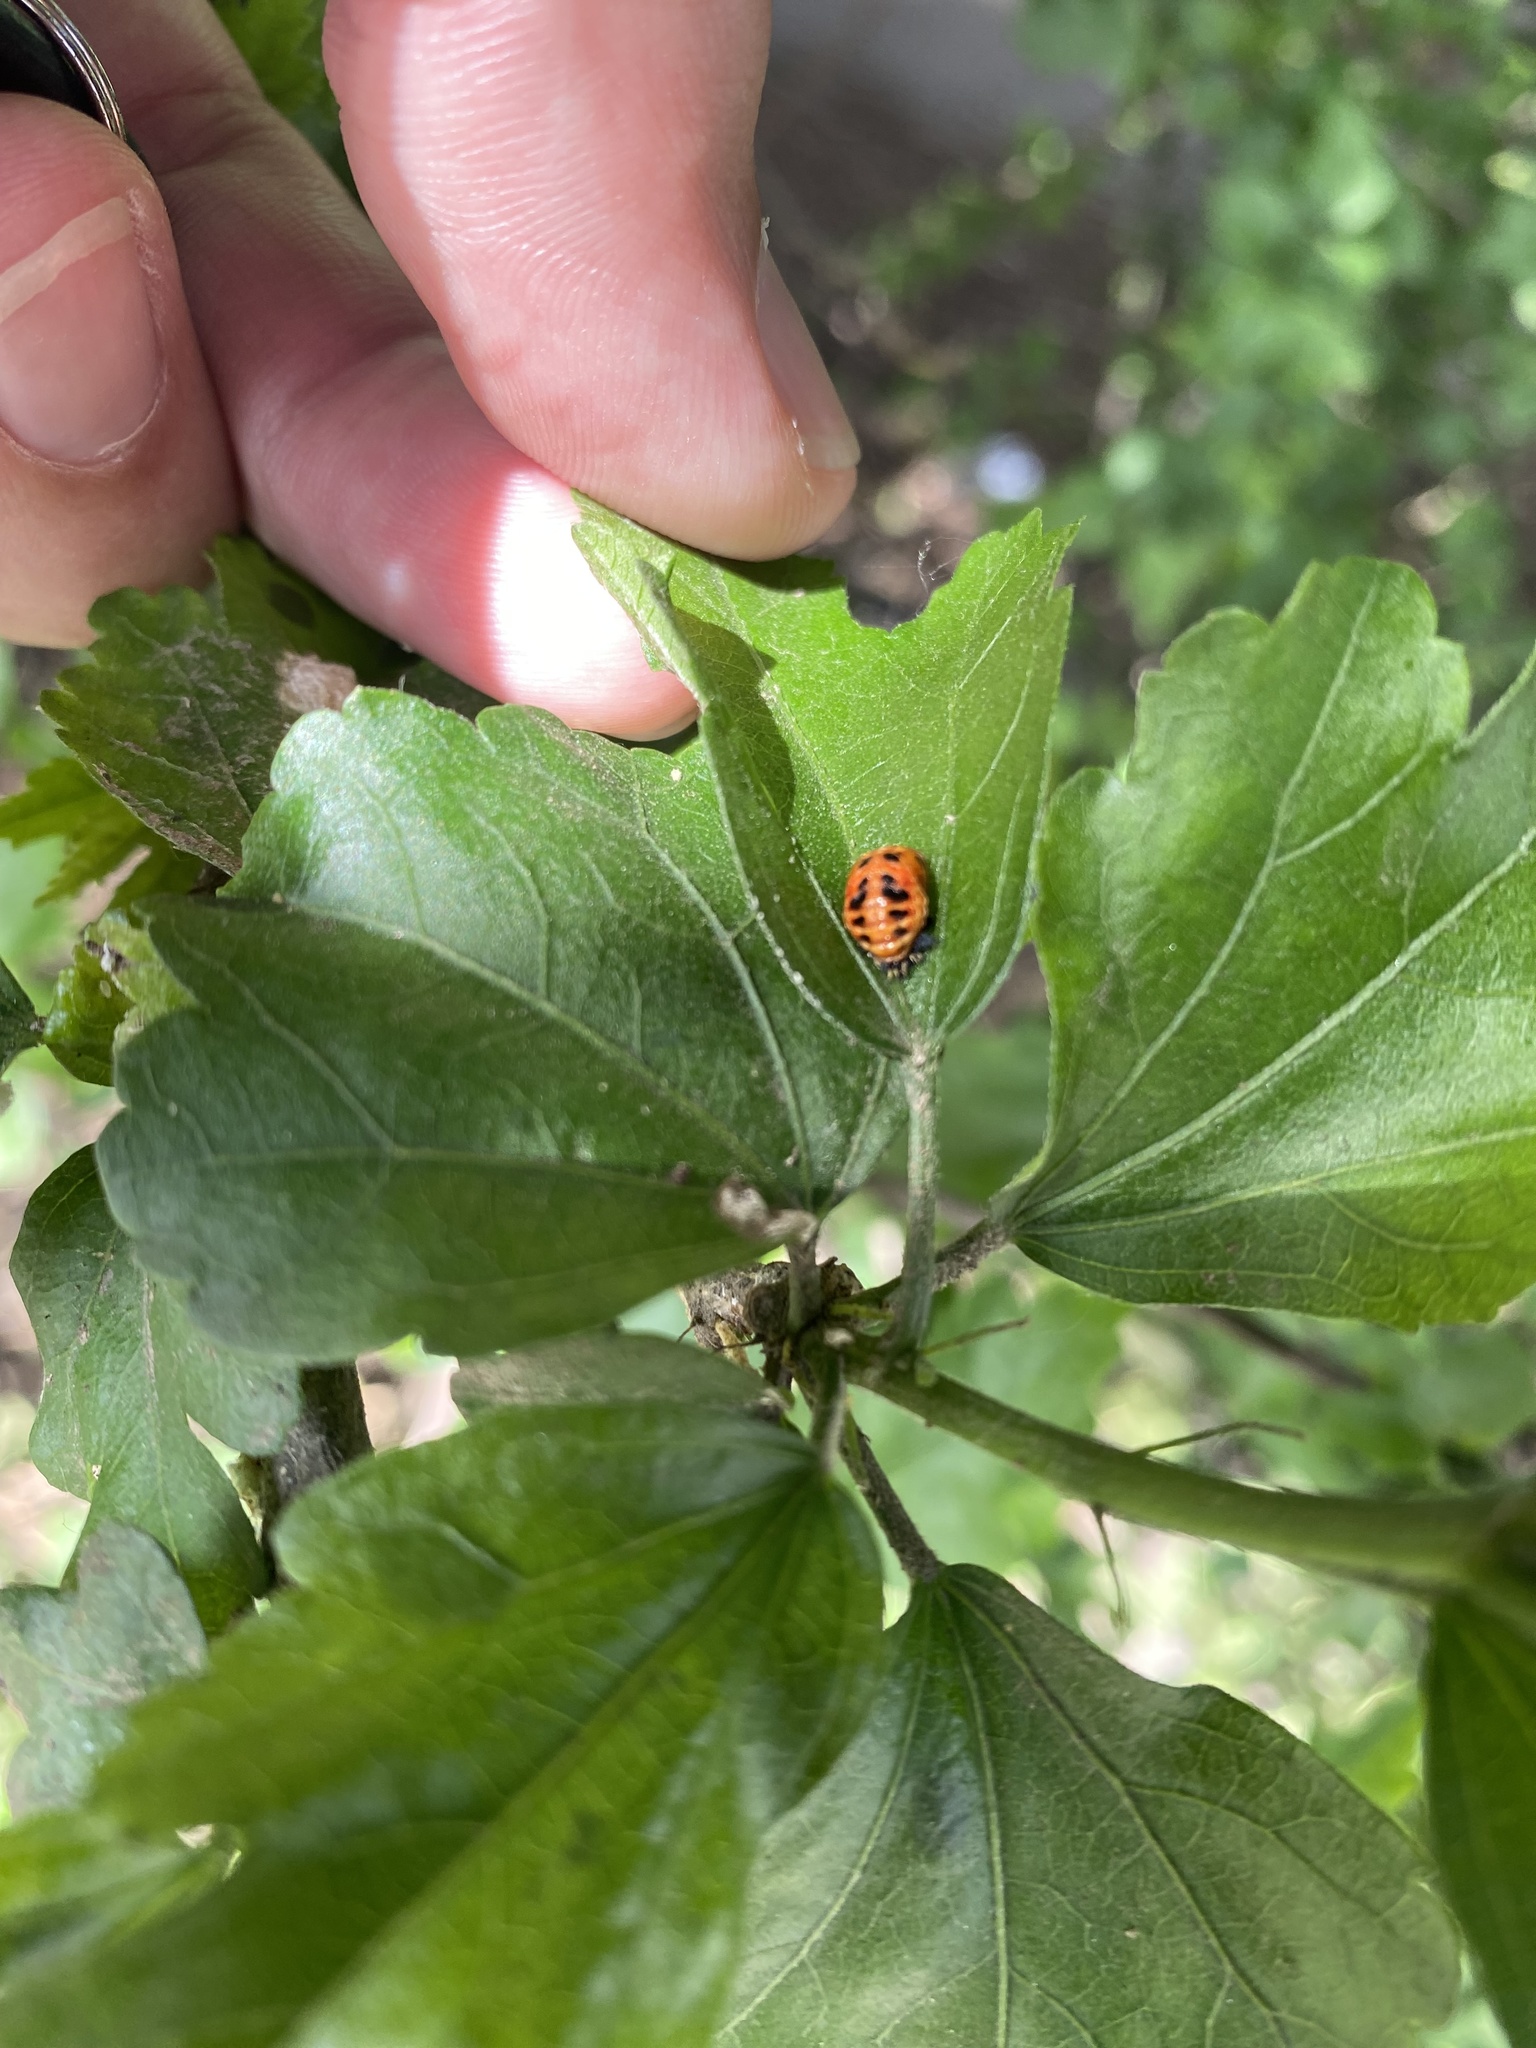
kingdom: Animalia
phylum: Arthropoda
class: Insecta
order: Coleoptera
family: Coccinellidae
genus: Harmonia
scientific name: Harmonia axyridis
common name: Harlequin ladybird
